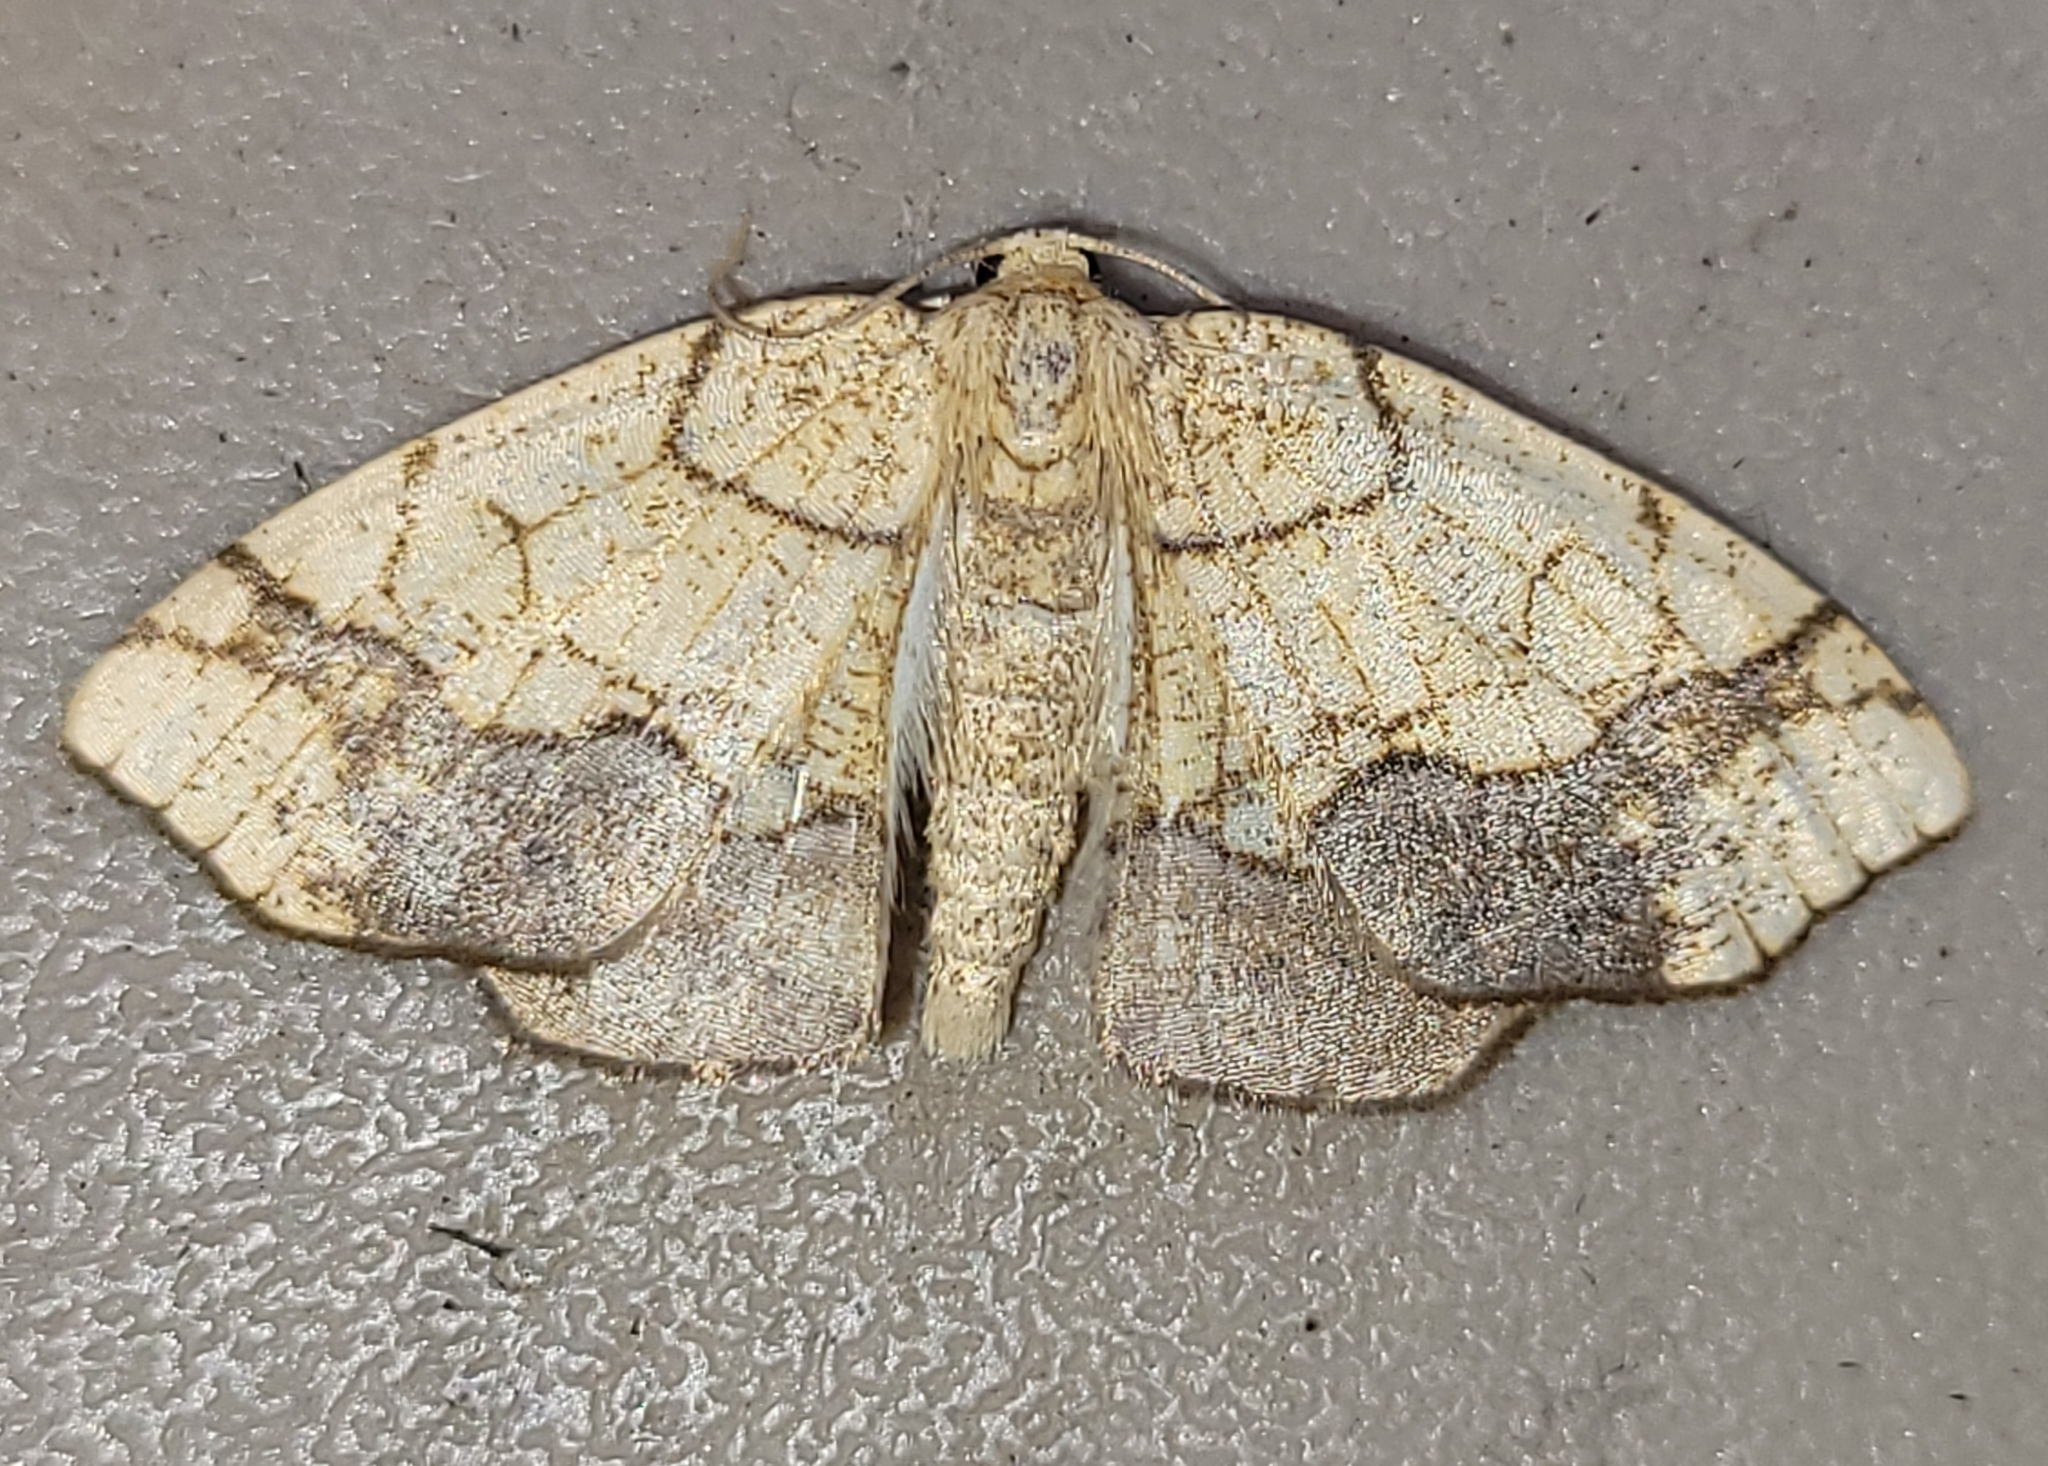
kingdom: Animalia
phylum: Arthropoda
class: Insecta
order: Lepidoptera
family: Geometridae
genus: Nematocampa
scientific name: Nematocampa resistaria
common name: Horned spanworm moth
